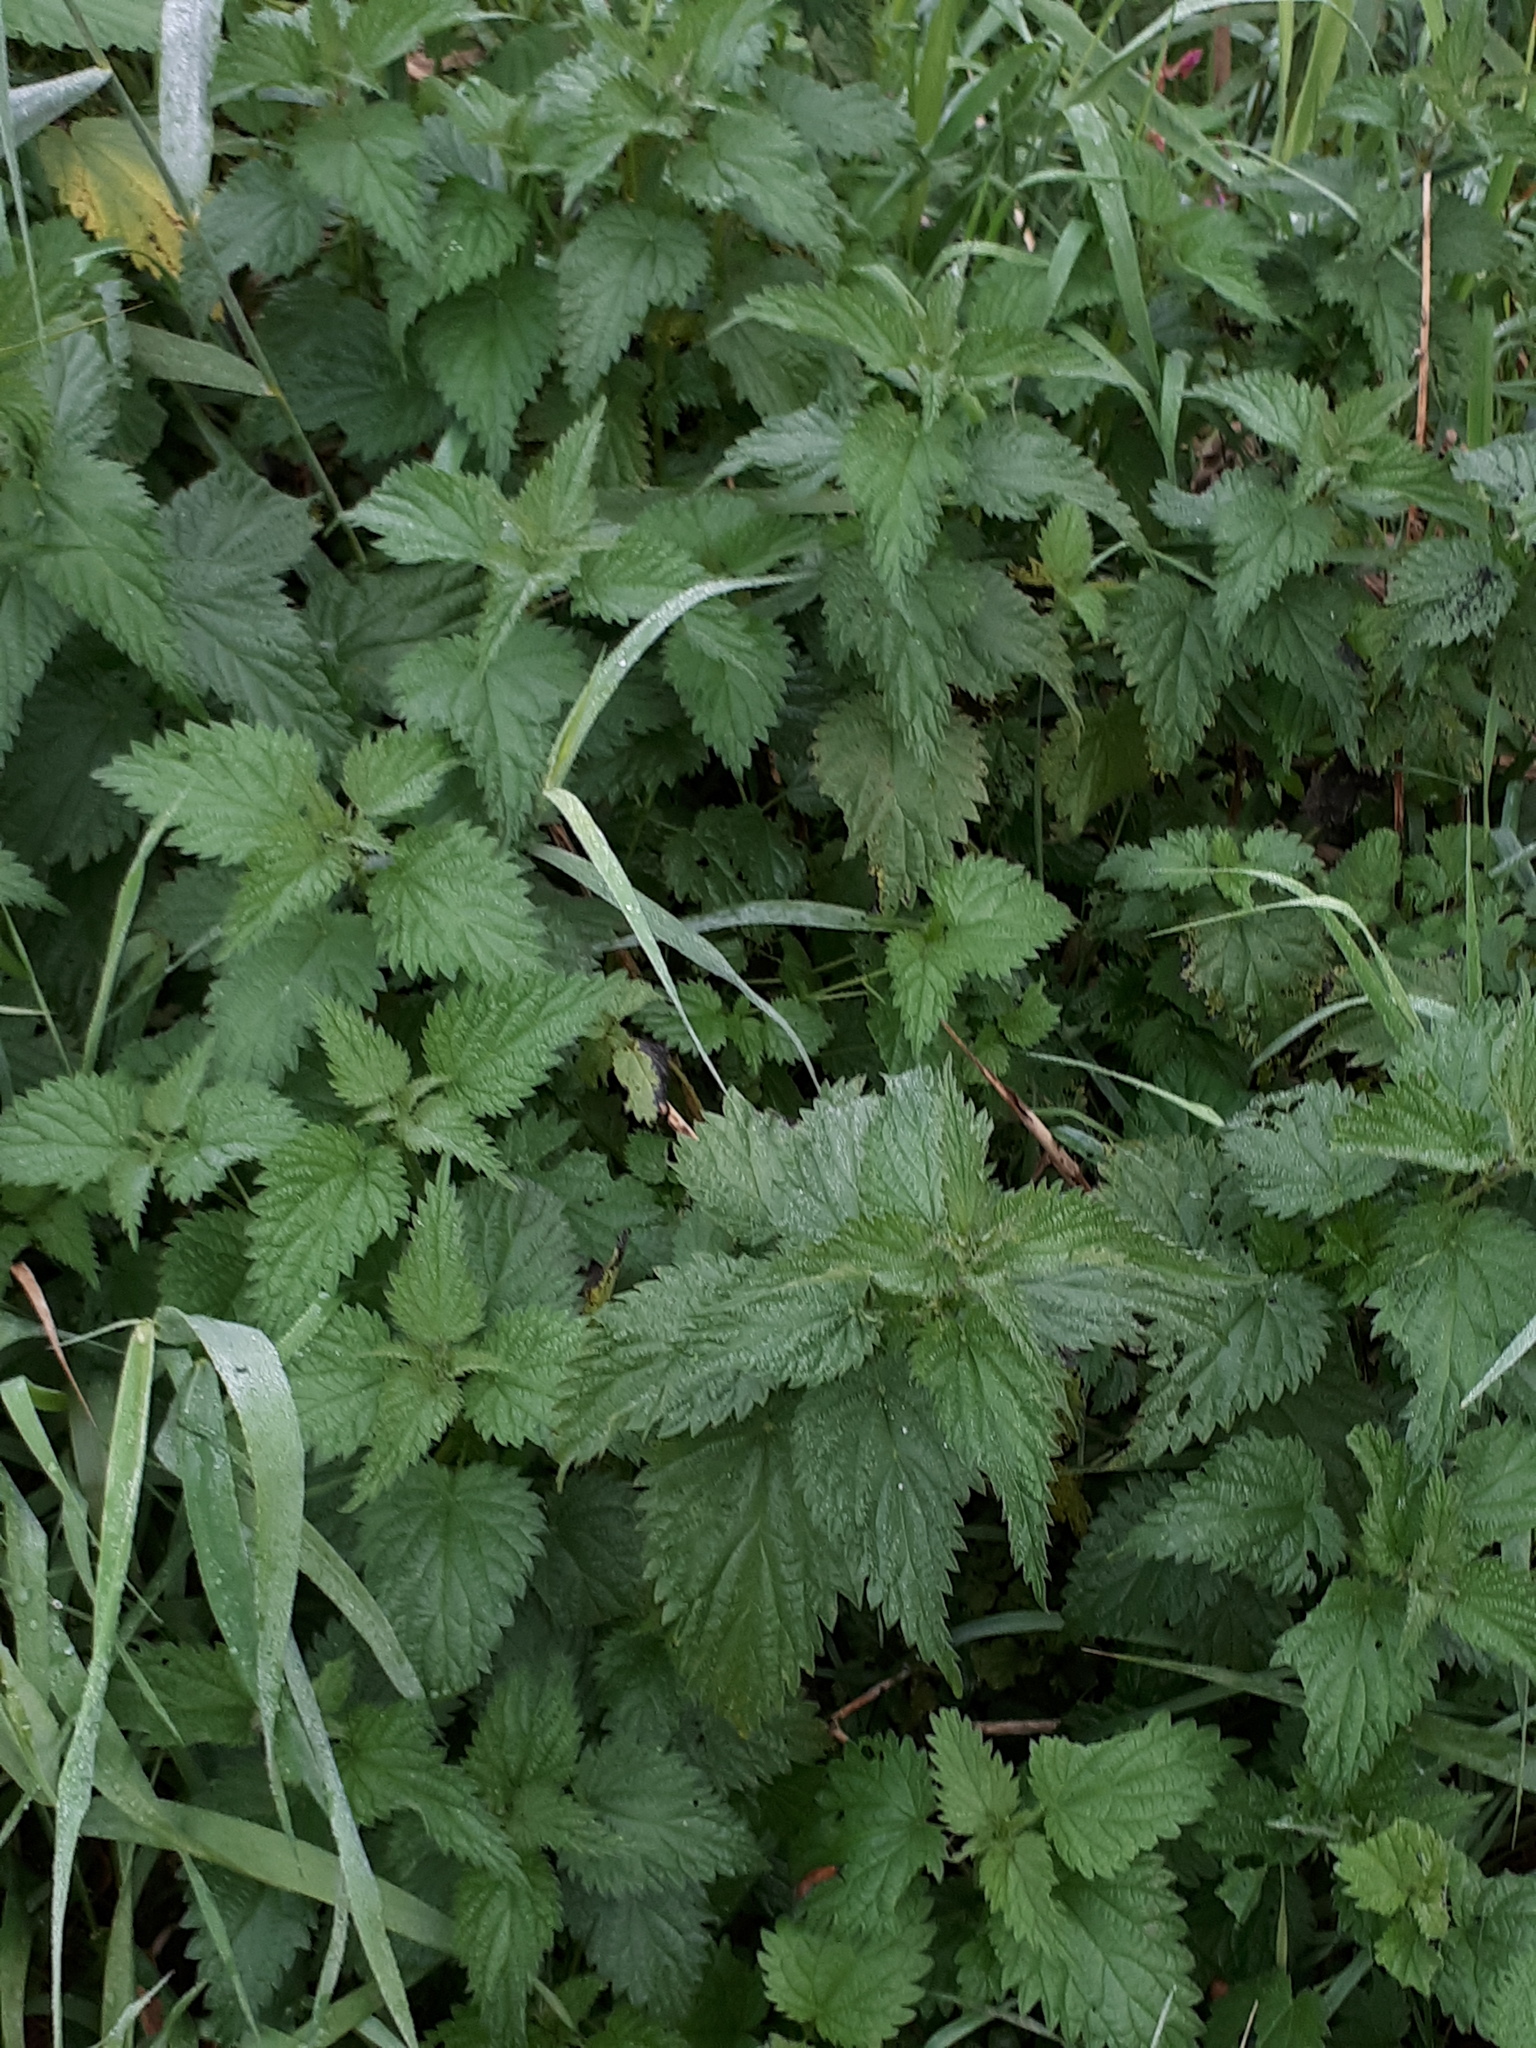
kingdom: Plantae
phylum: Tracheophyta
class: Magnoliopsida
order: Rosales
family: Urticaceae
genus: Urtica
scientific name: Urtica dioica
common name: Common nettle
